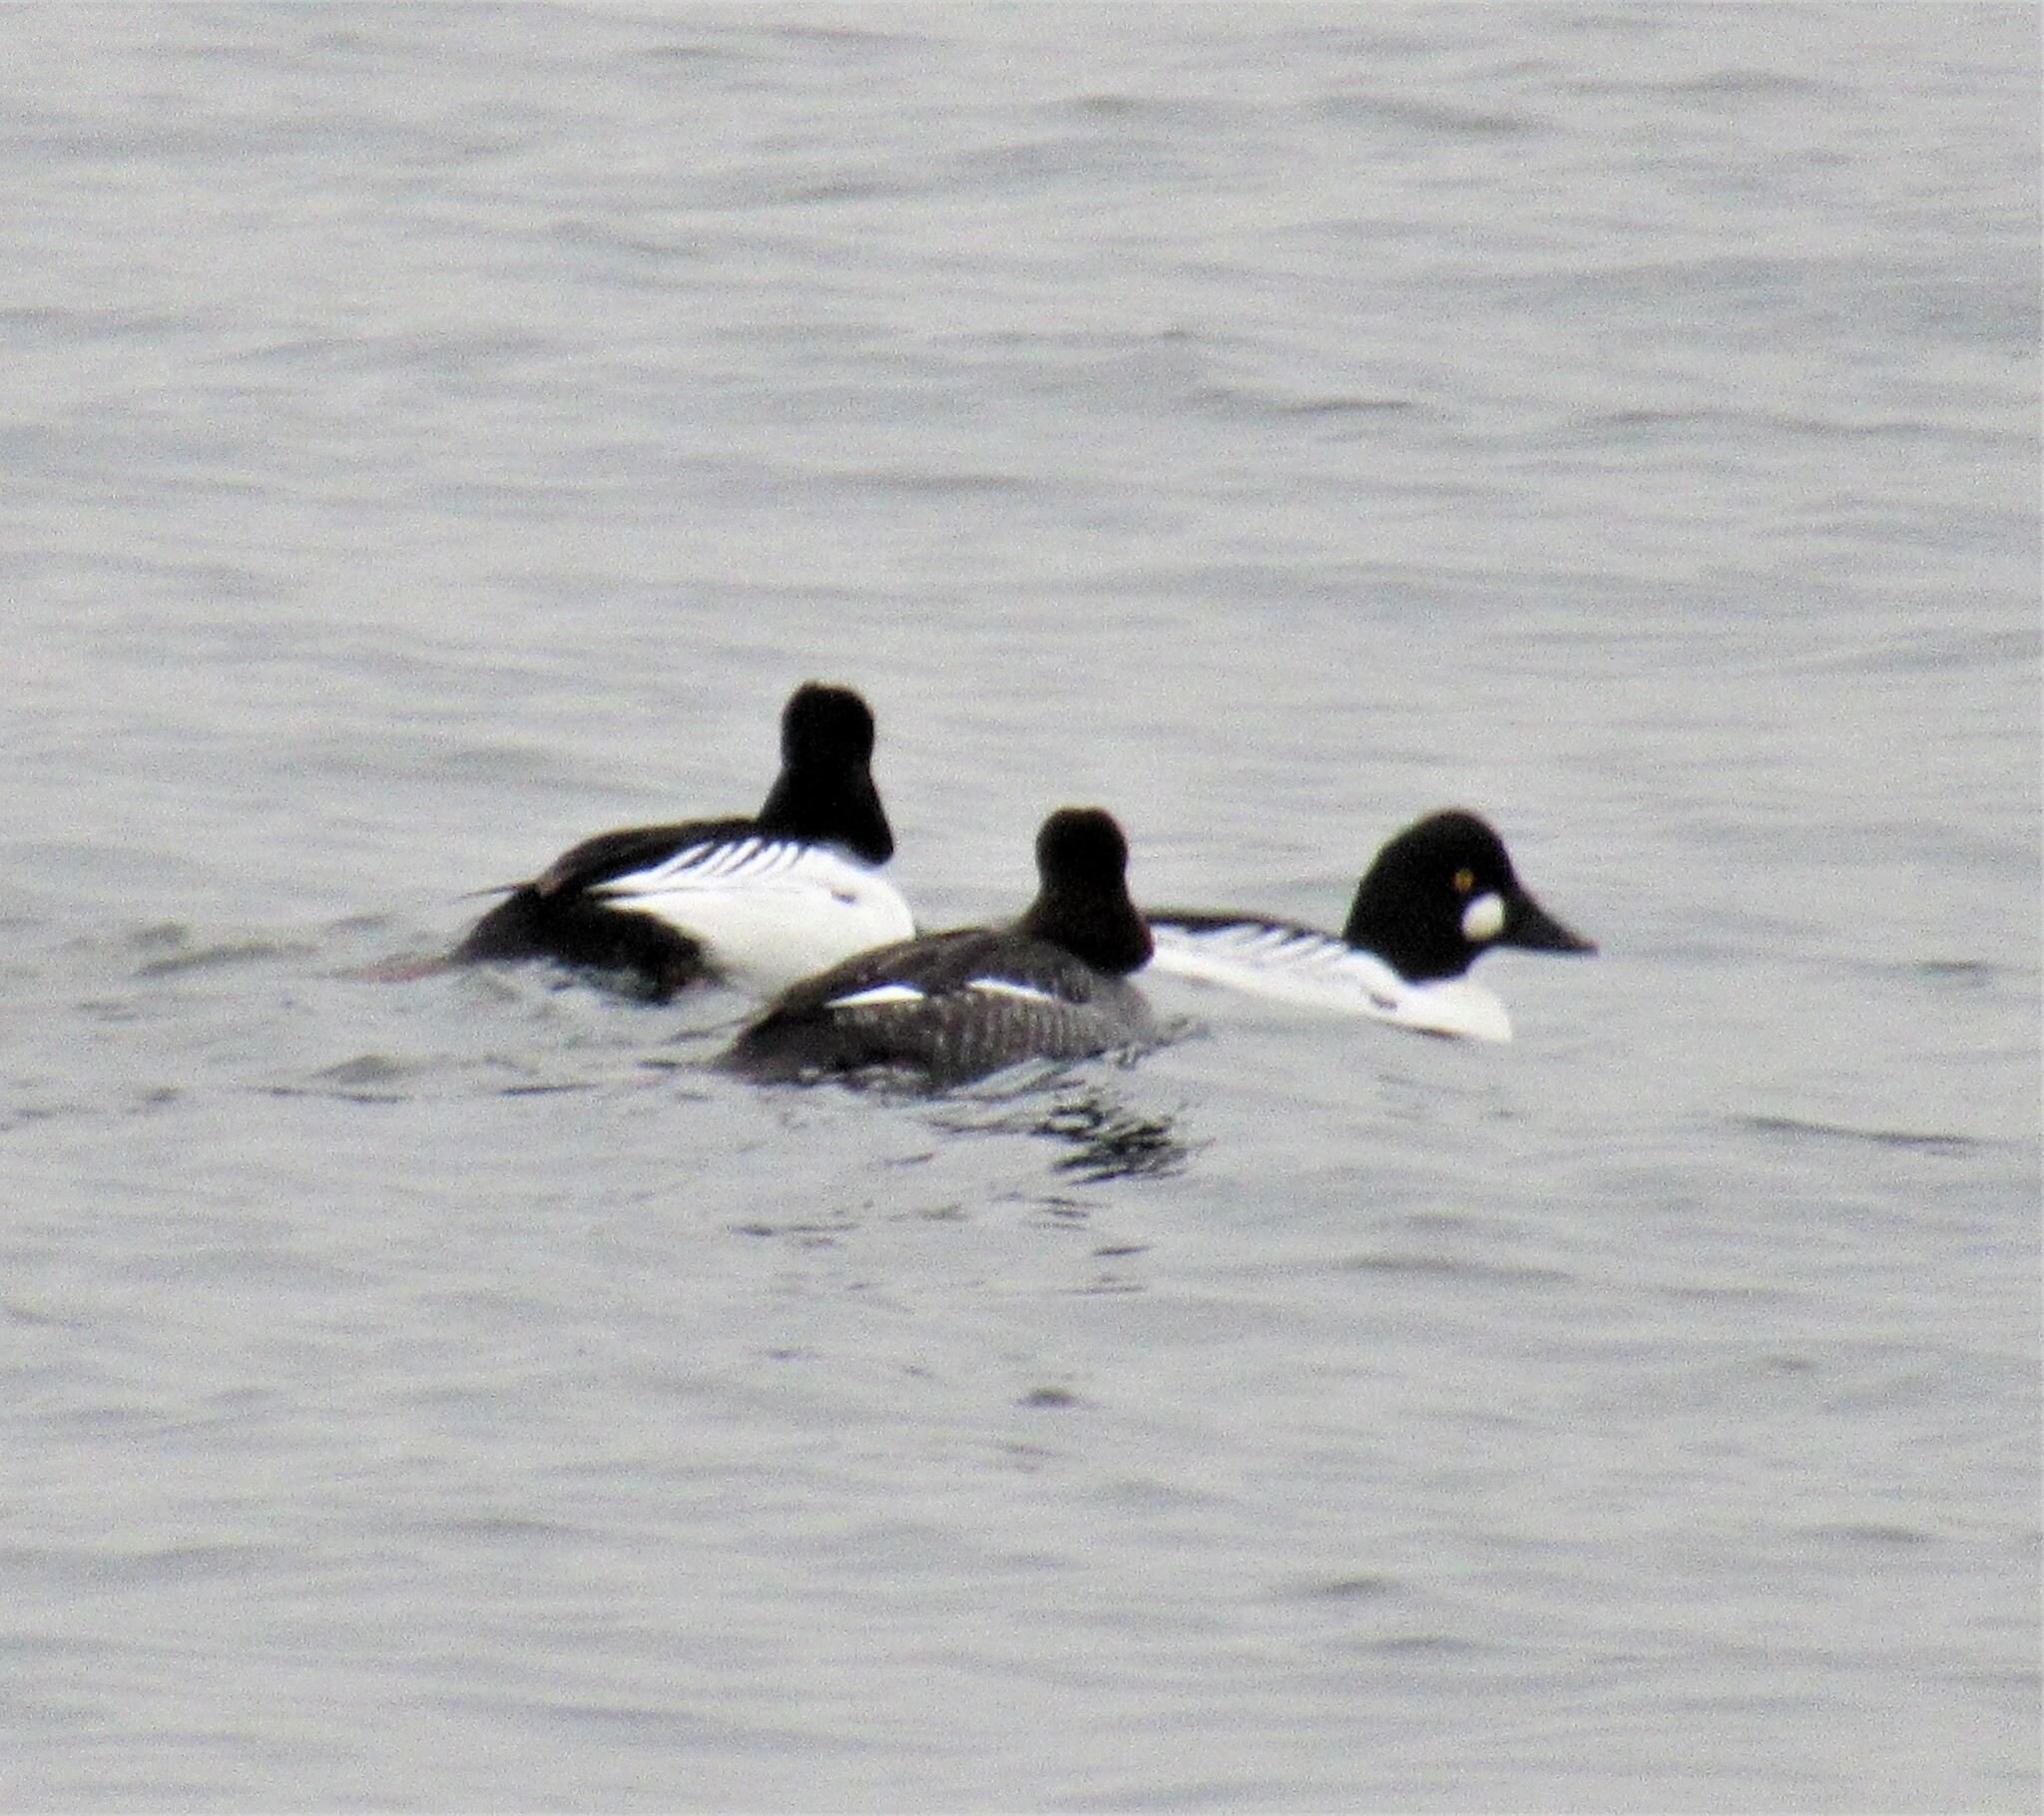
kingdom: Animalia
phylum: Chordata
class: Aves
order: Anseriformes
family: Anatidae
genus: Bucephala
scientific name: Bucephala clangula
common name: Common goldeneye
